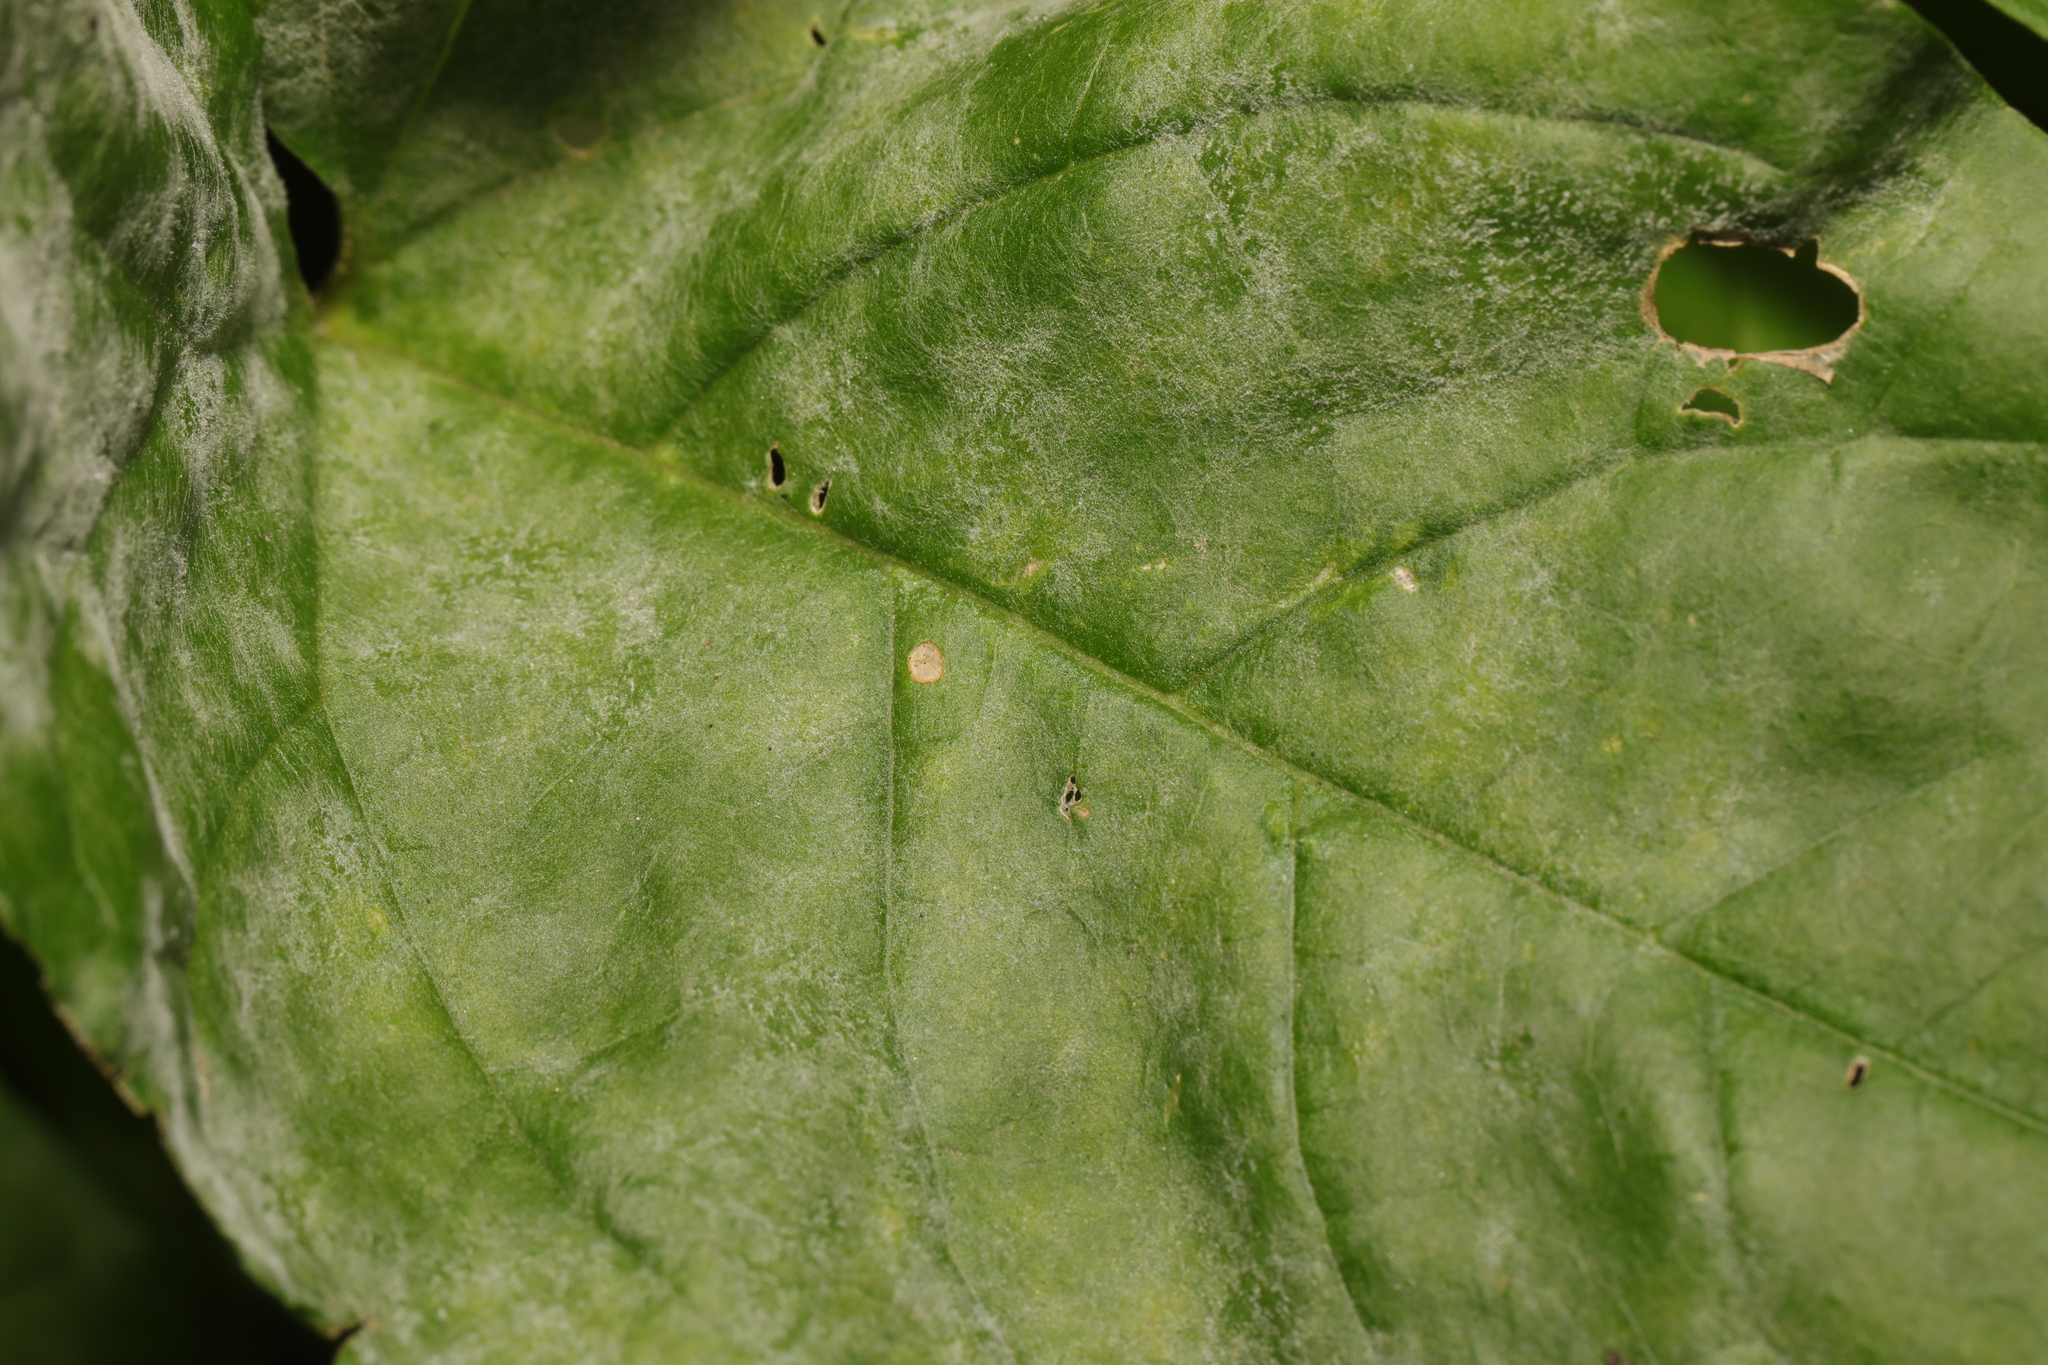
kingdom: Fungi
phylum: Ascomycota
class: Leotiomycetes
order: Helotiales
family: Erysiphaceae
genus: Erysiphe
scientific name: Erysiphe convolvuli
